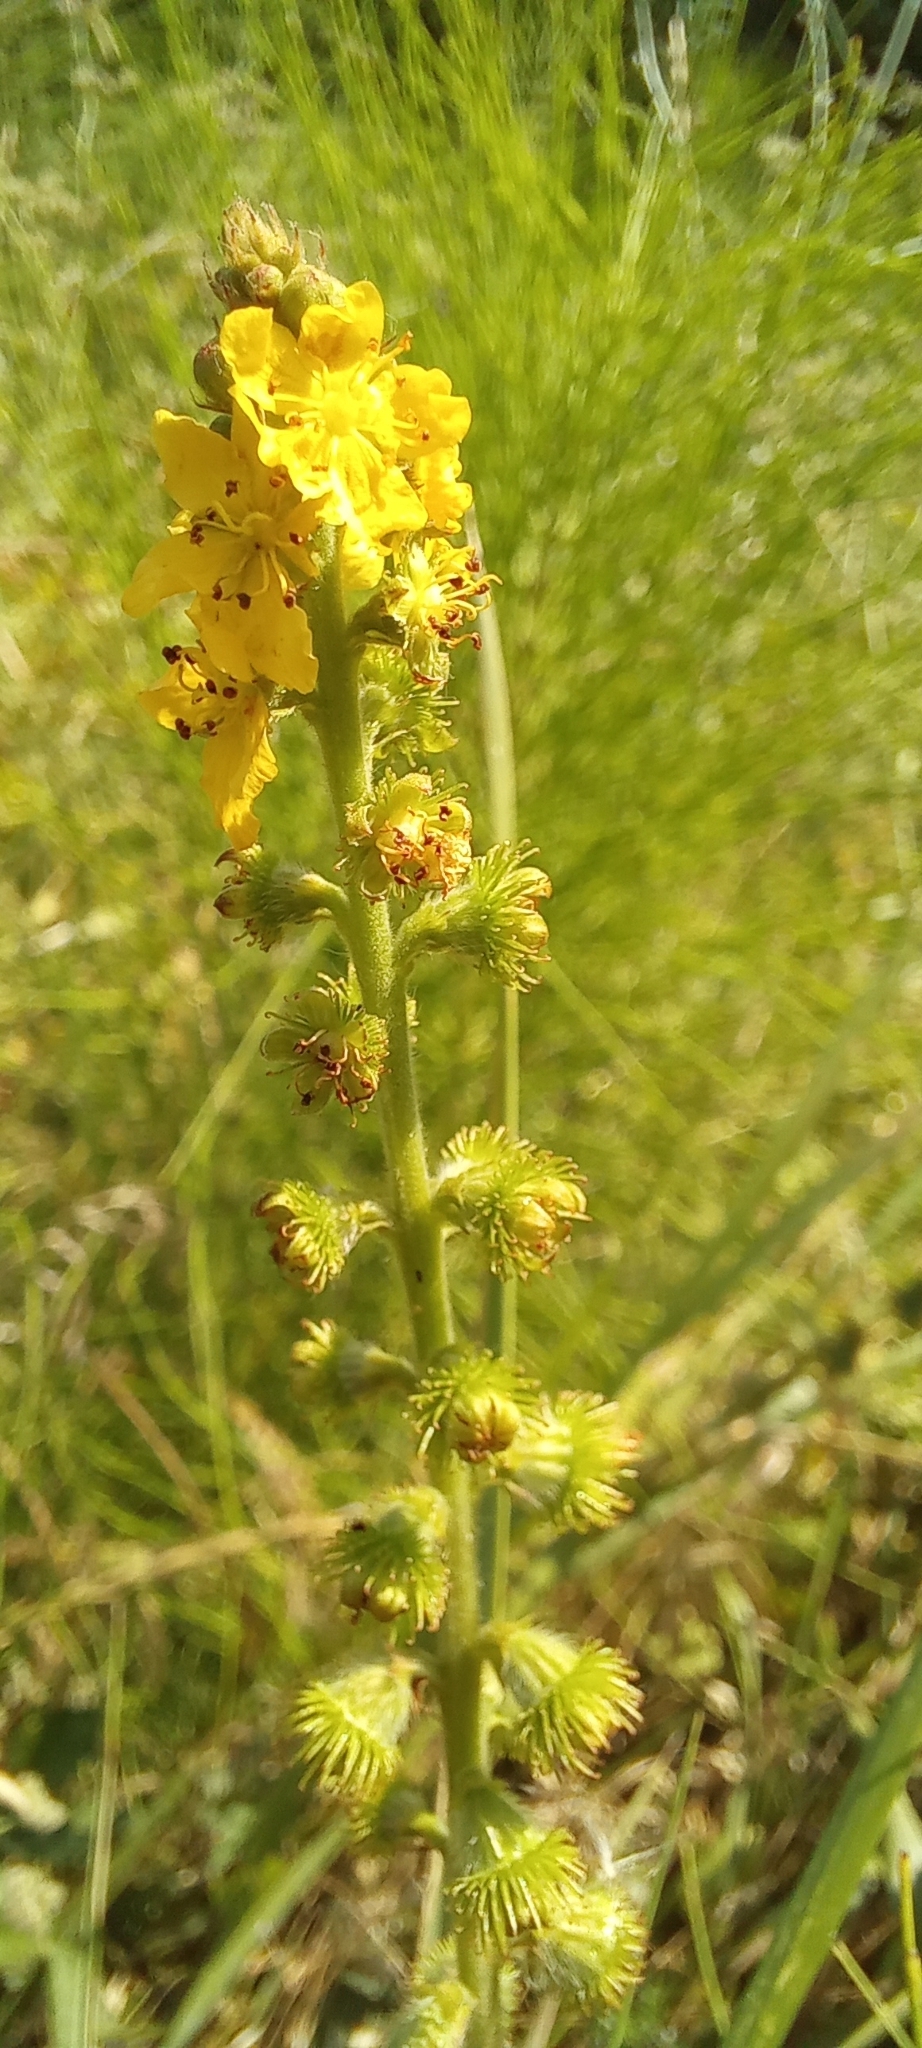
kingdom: Plantae
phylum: Tracheophyta
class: Magnoliopsida
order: Rosales
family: Rosaceae
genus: Agrimonia
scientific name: Agrimonia eupatoria
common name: Agrimony
